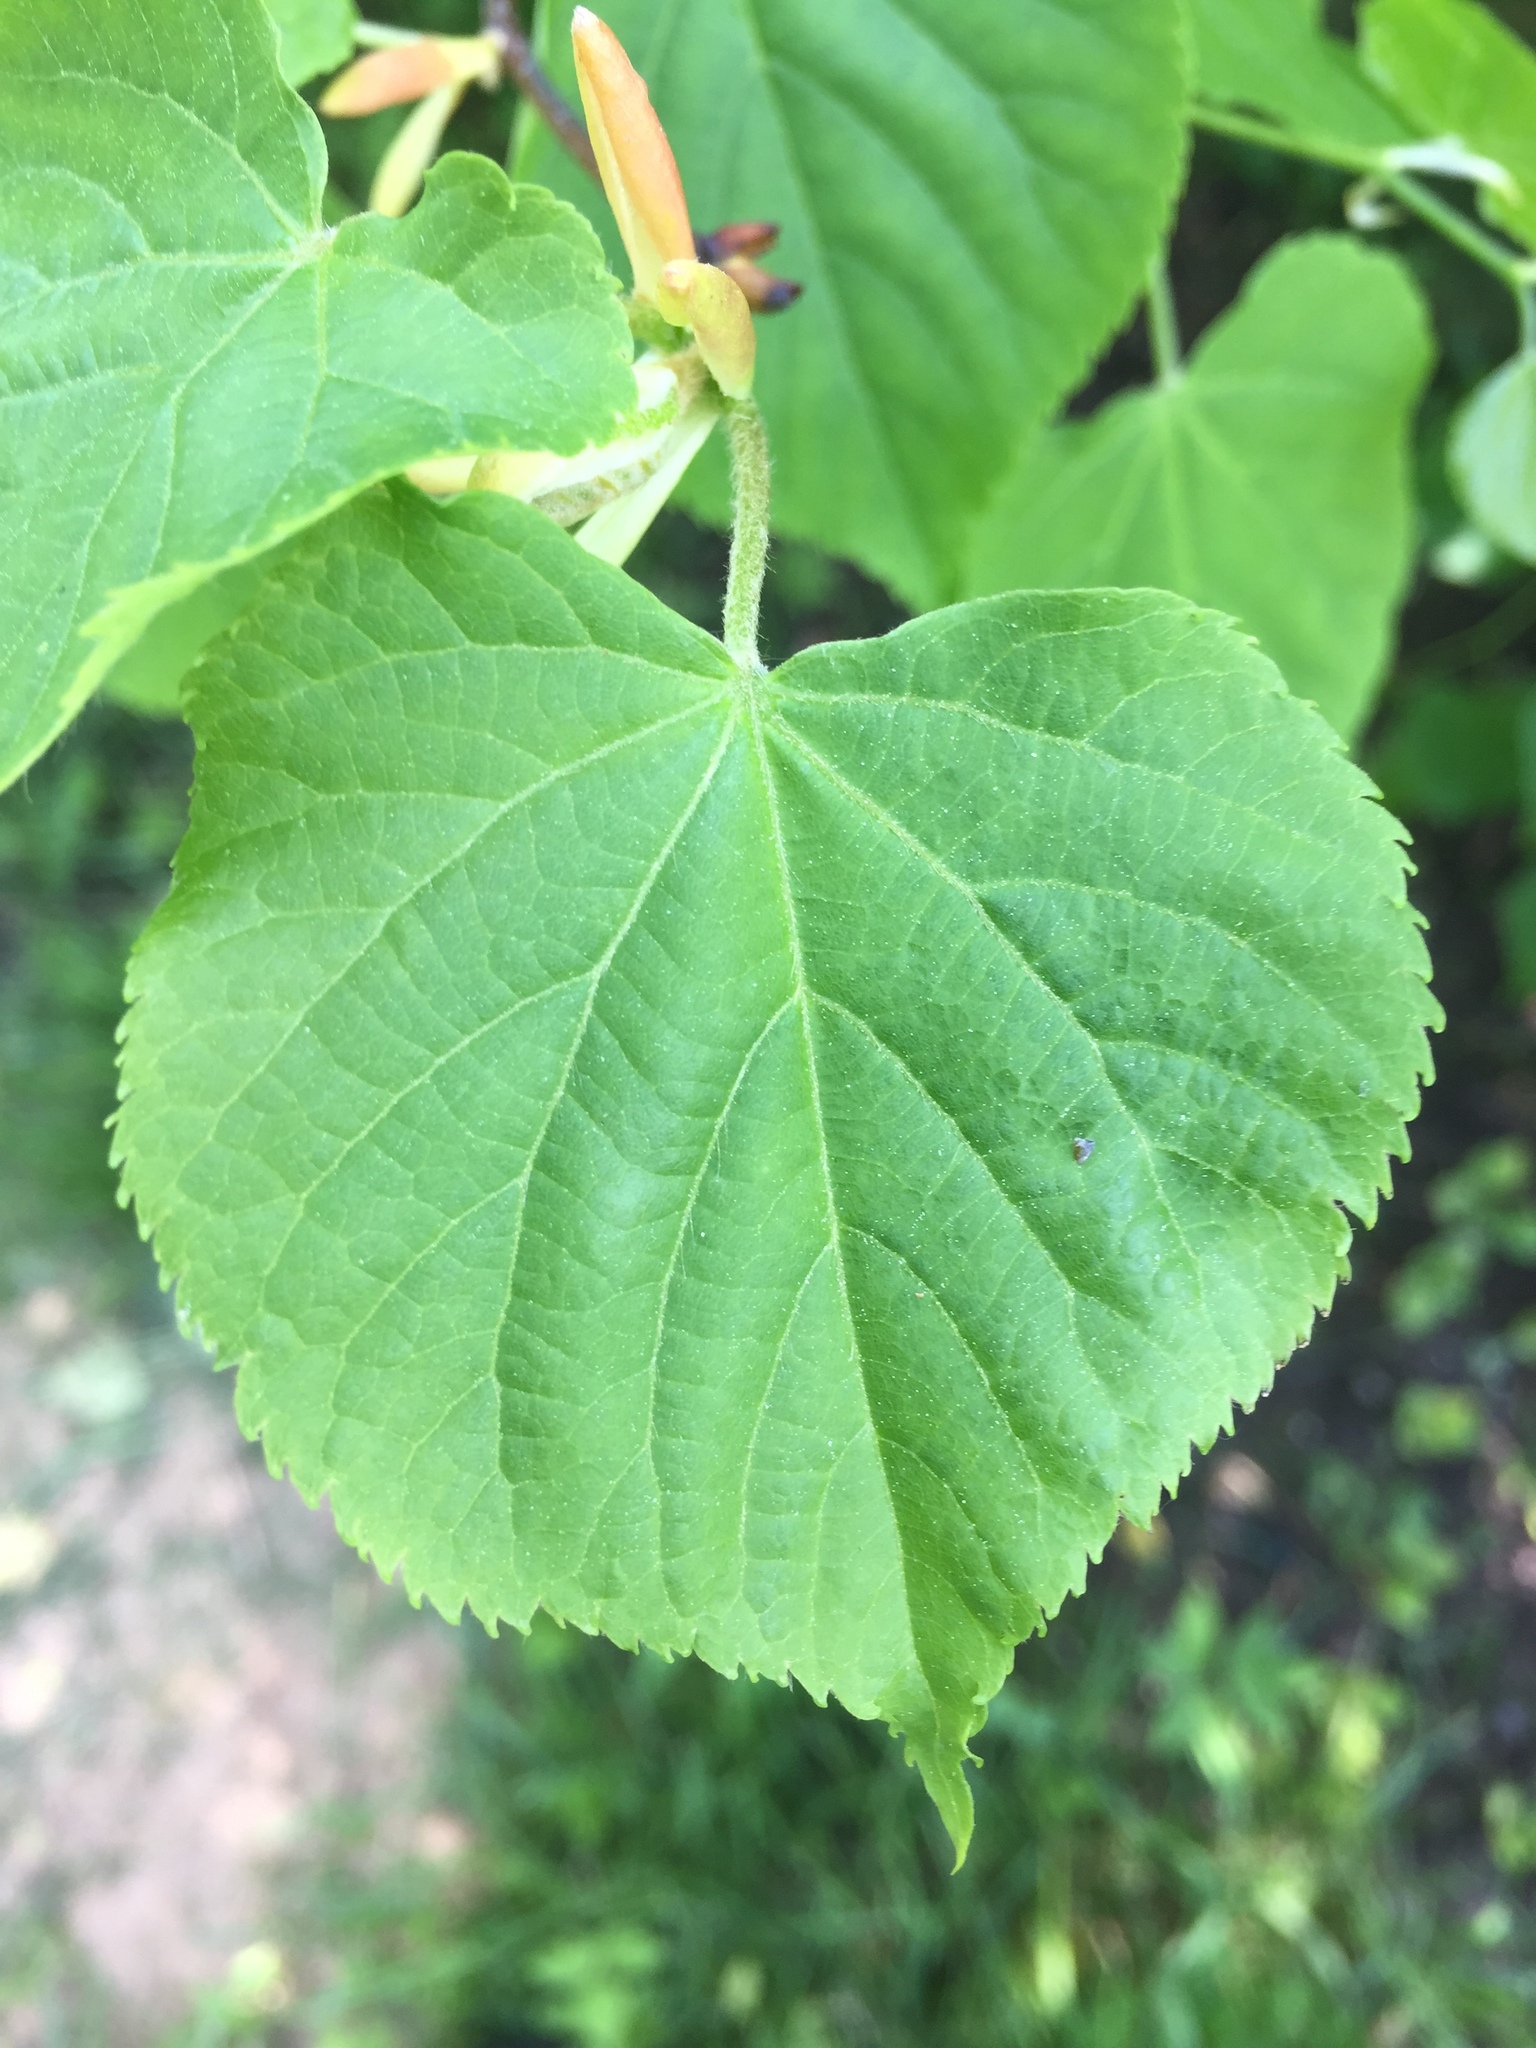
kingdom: Plantae
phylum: Tracheophyta
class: Magnoliopsida
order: Malvales
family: Malvaceae
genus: Tilia
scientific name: Tilia cordata
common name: Small-leaved lime
